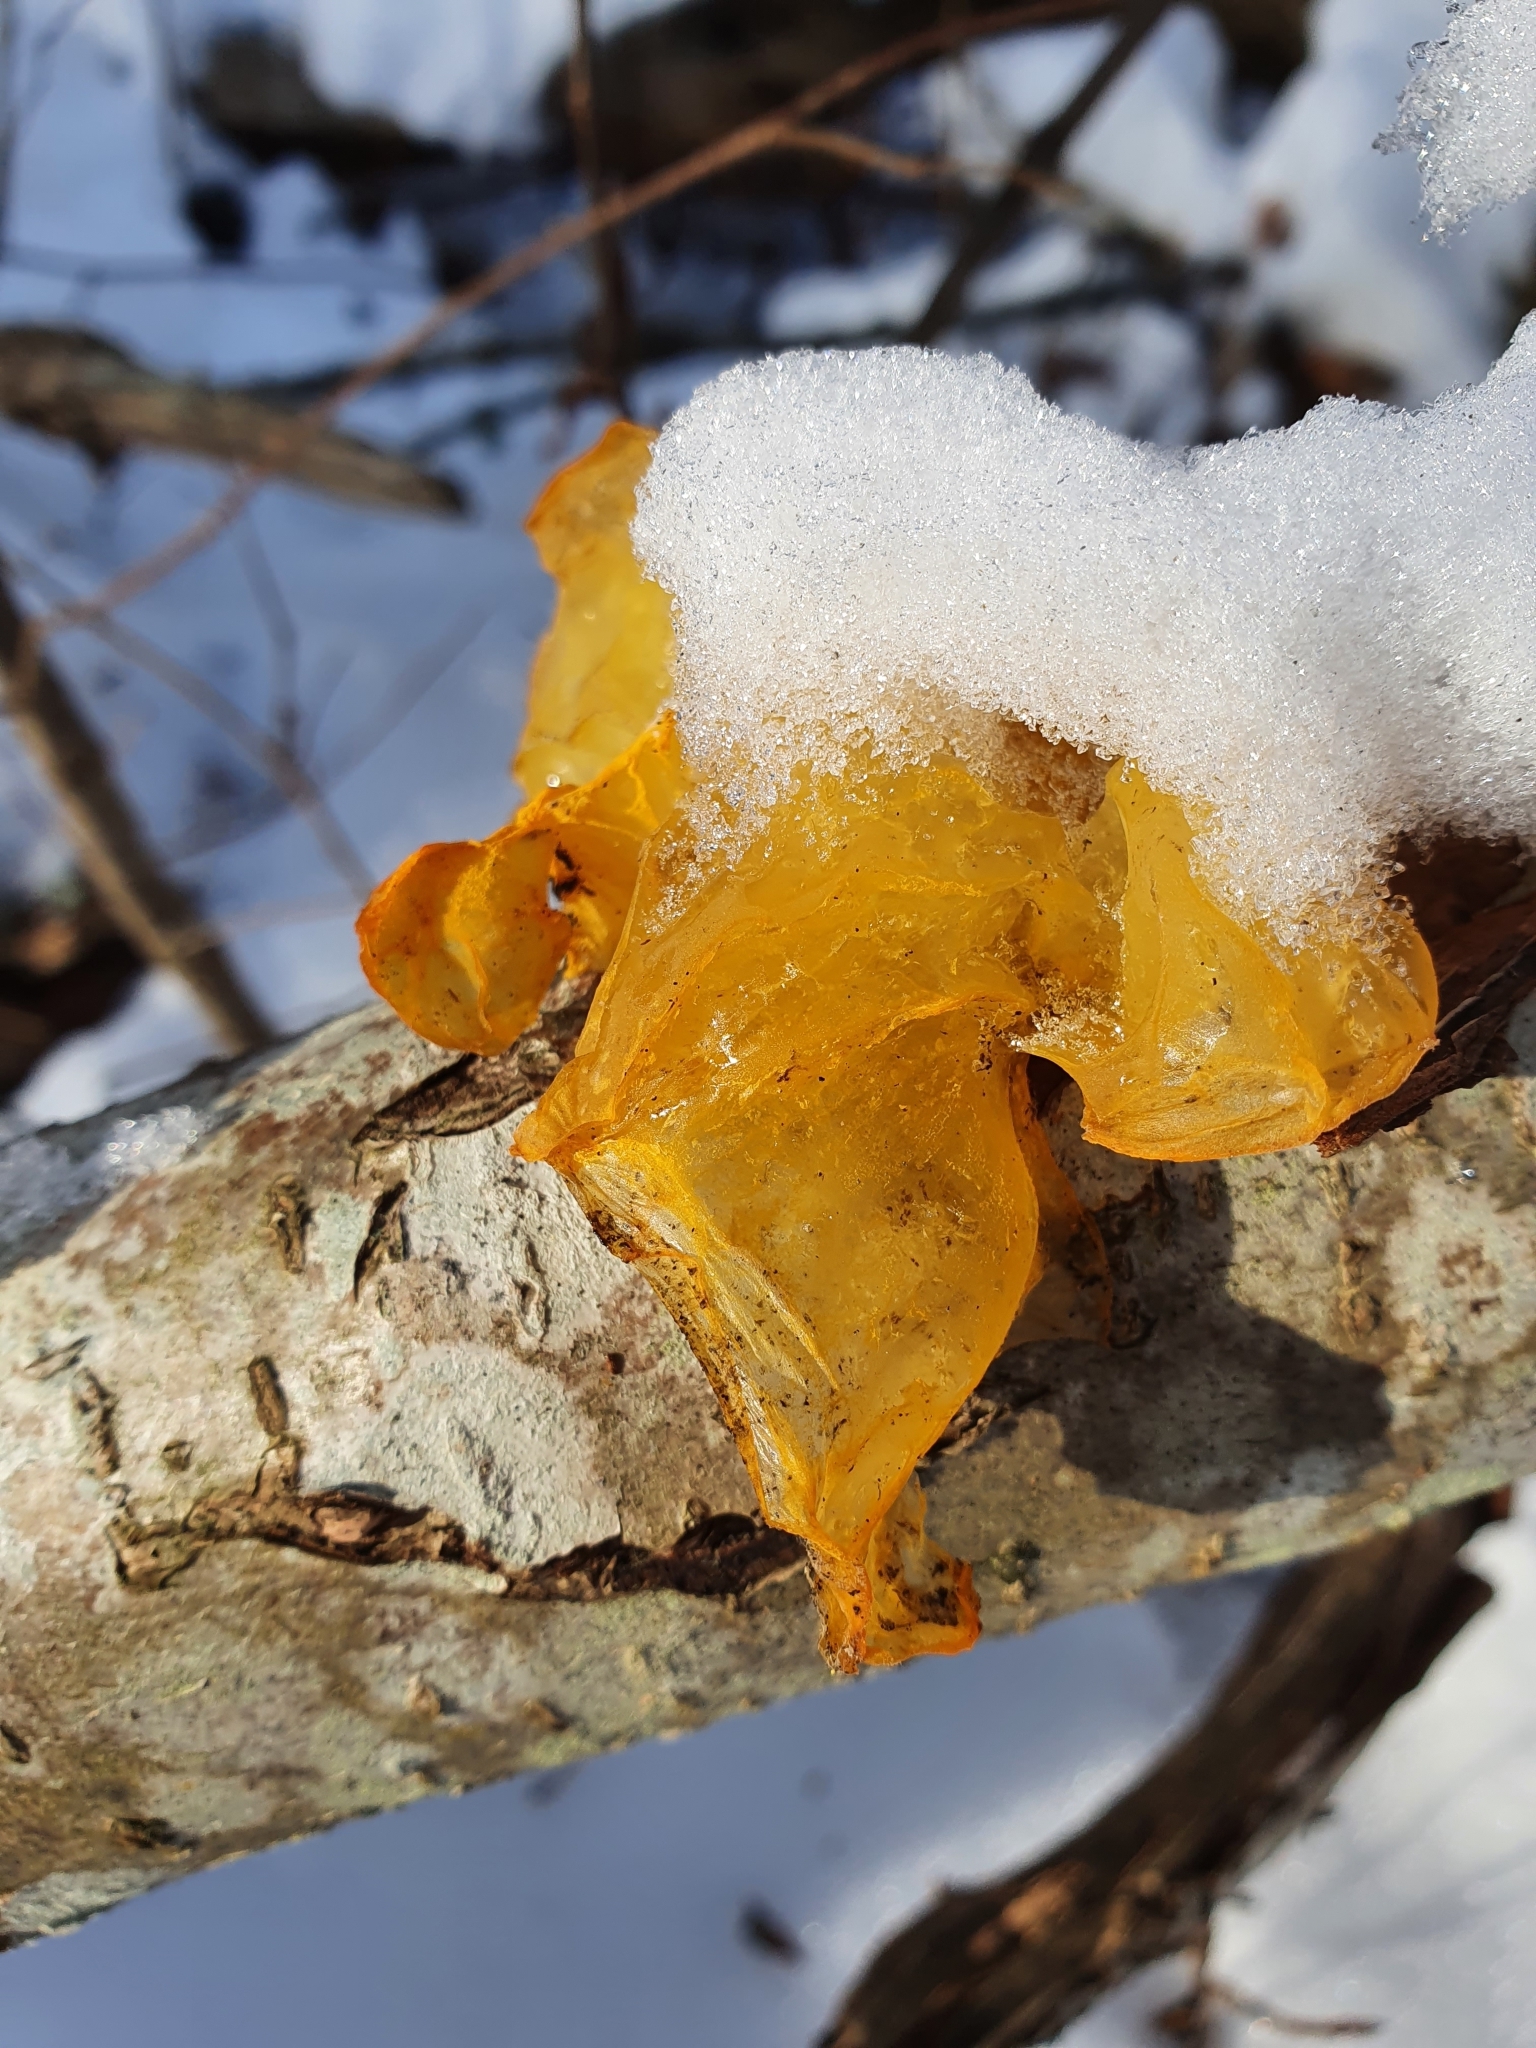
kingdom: Fungi
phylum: Basidiomycota
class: Tremellomycetes
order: Tremellales
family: Tremellaceae
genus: Tremella
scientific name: Tremella mesenterica
